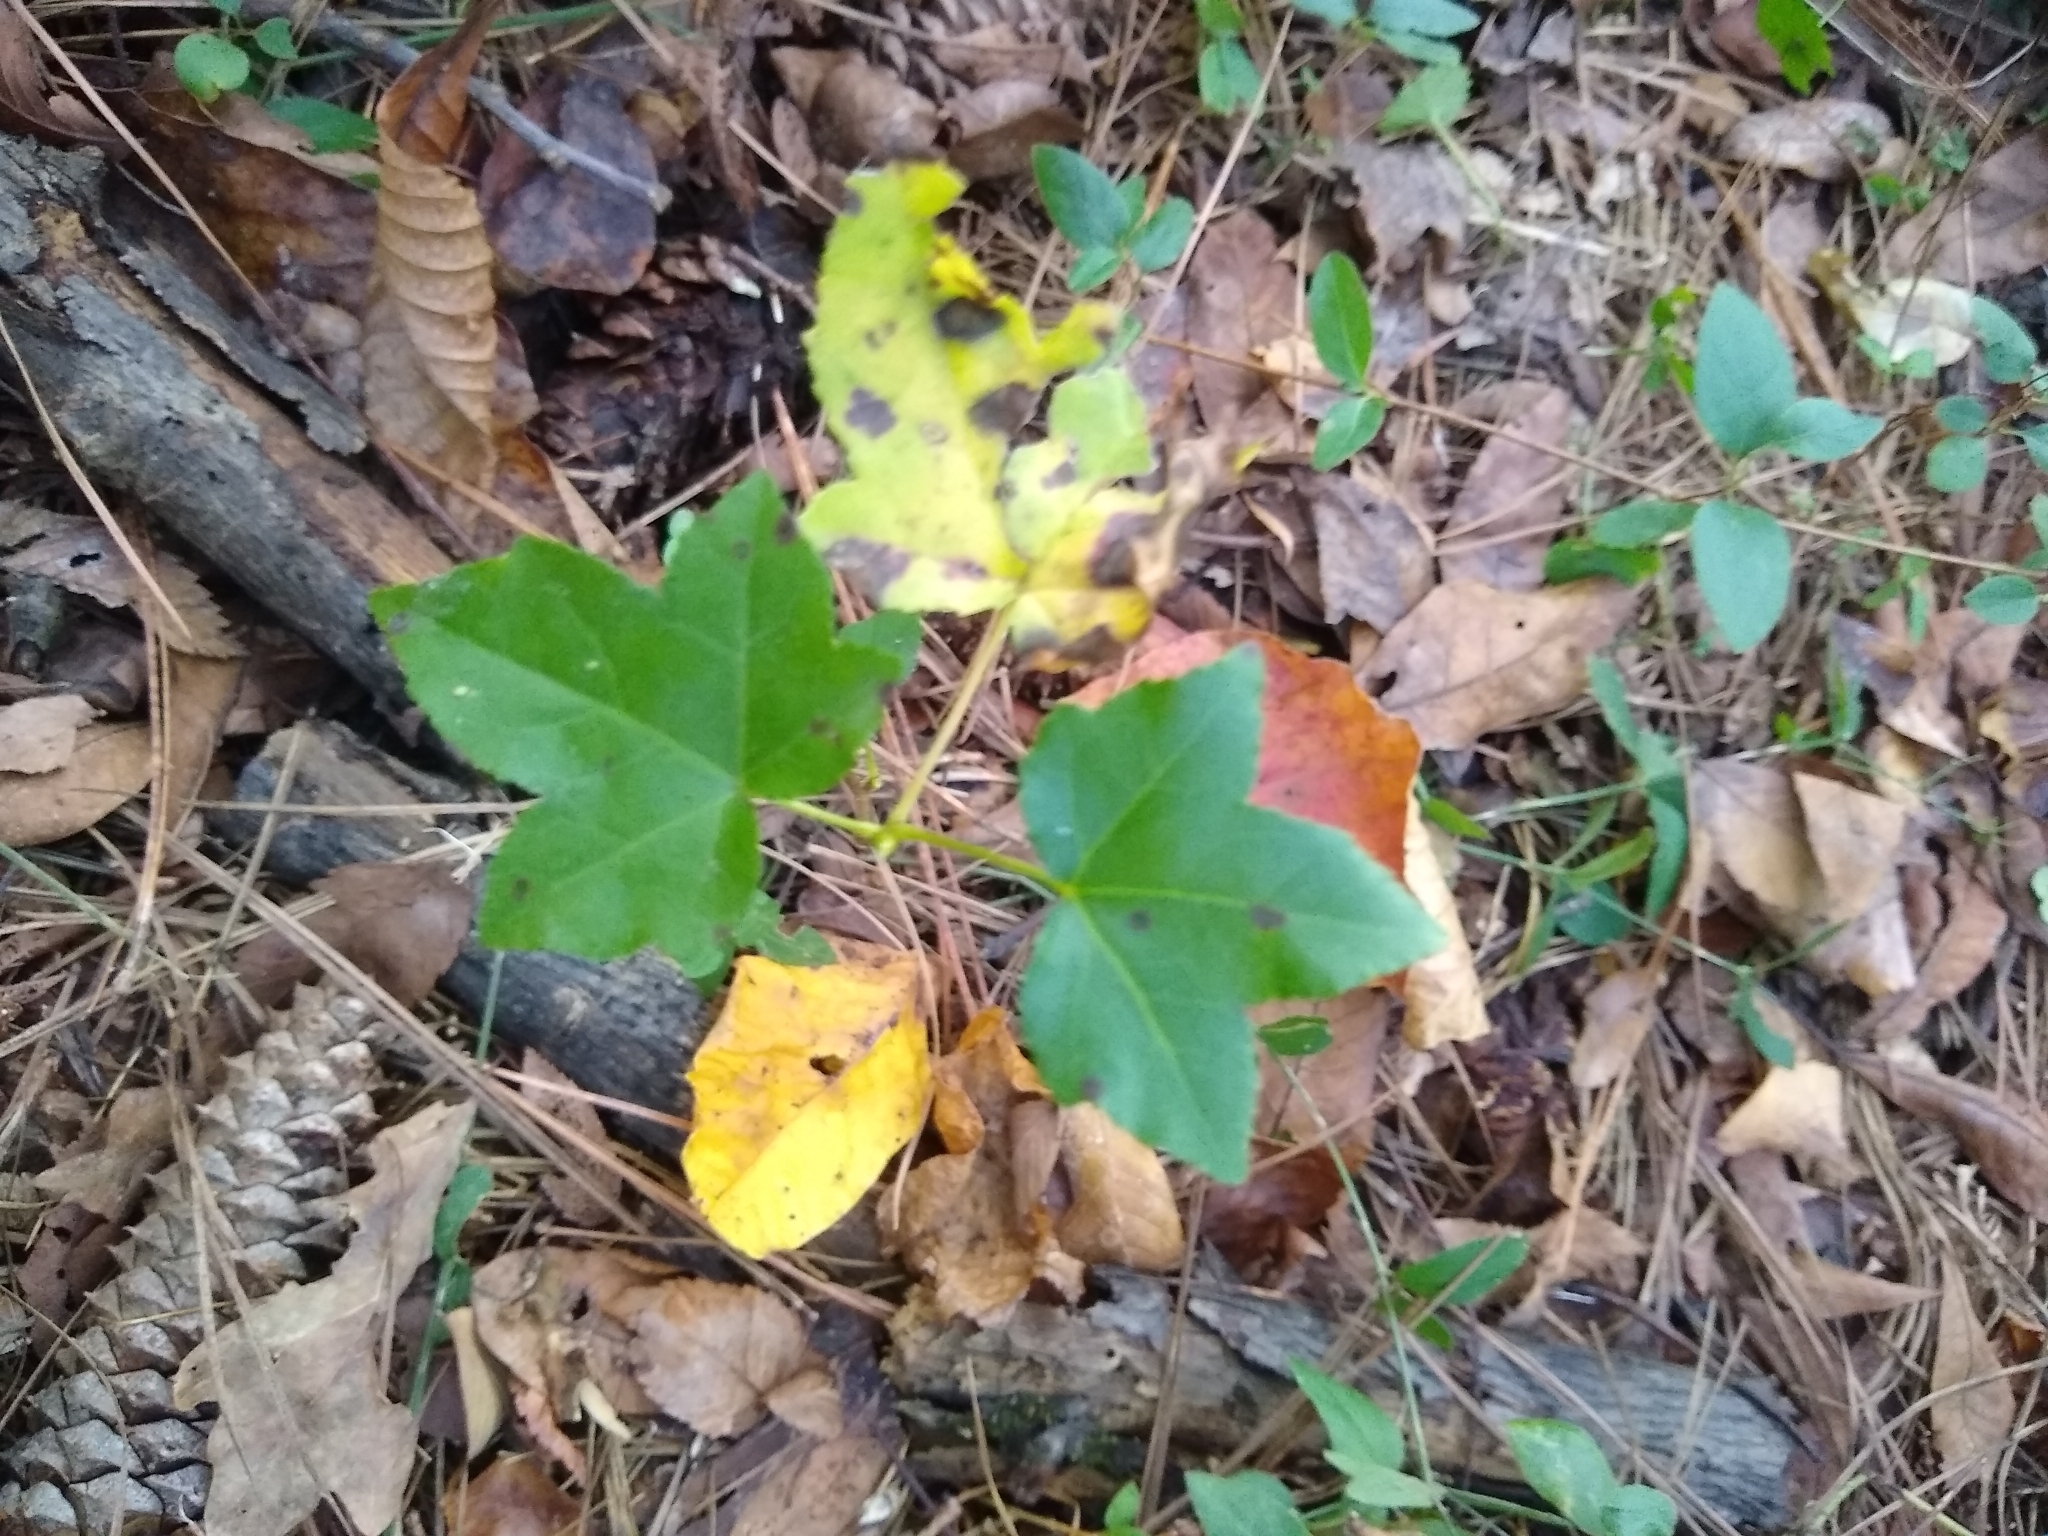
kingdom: Plantae
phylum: Tracheophyta
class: Magnoliopsida
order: Saxifragales
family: Altingiaceae
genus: Liquidambar
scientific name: Liquidambar styraciflua
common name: Sweet gum
